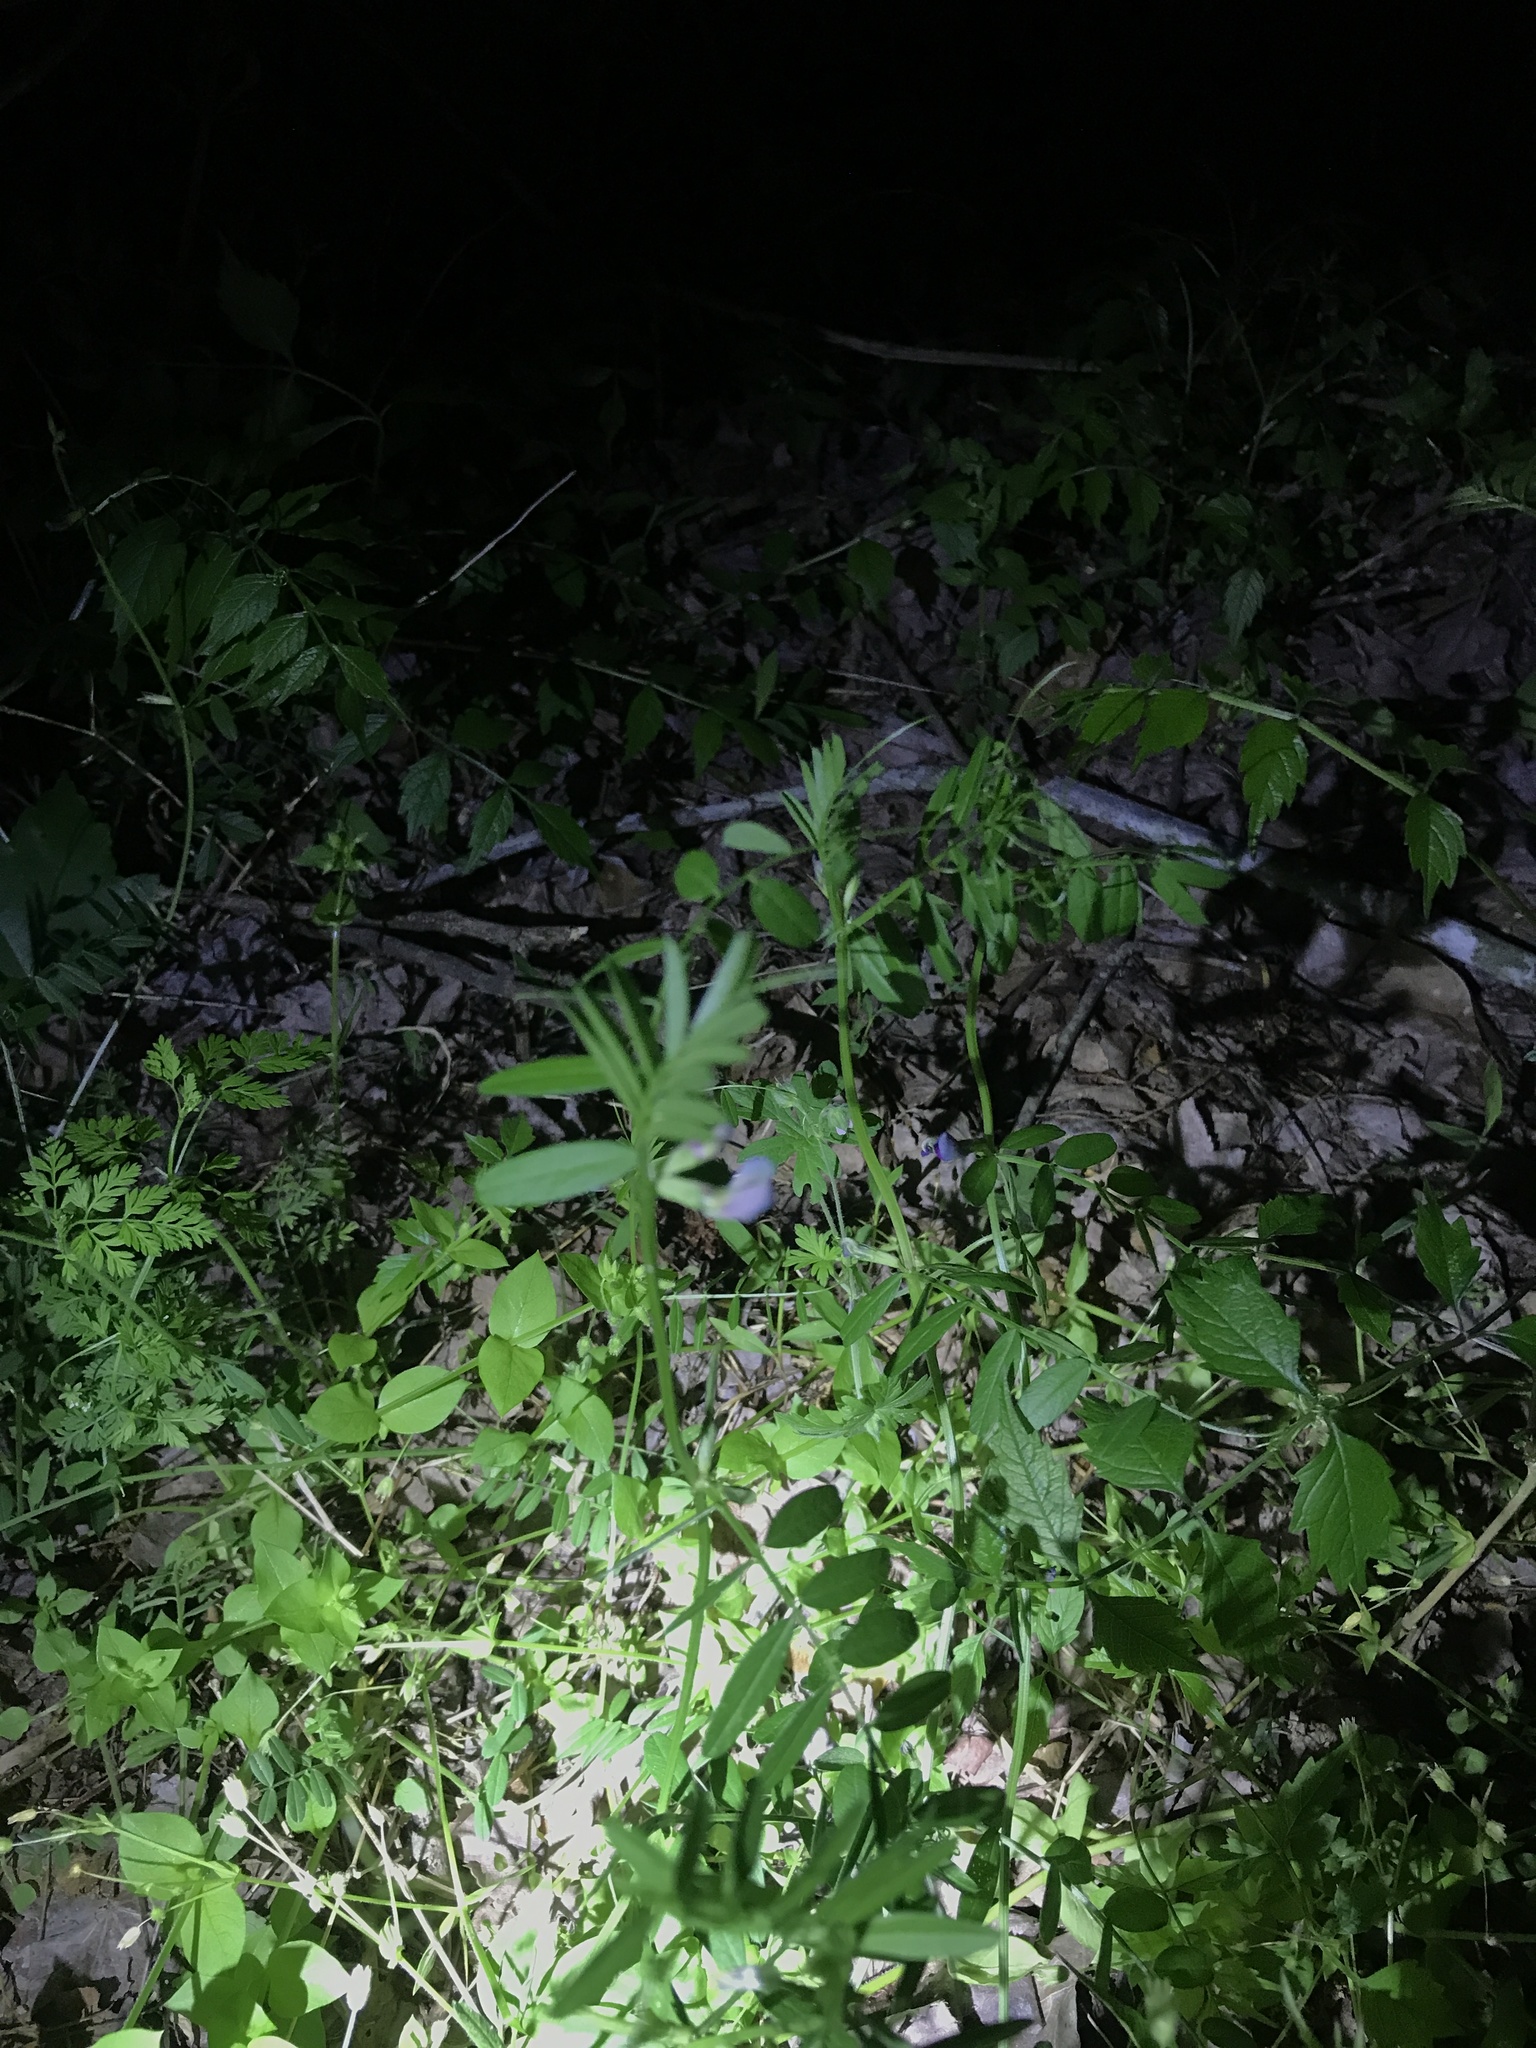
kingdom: Plantae
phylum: Tracheophyta
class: Magnoliopsida
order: Fabales
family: Fabaceae
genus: Vicia
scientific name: Vicia sativa
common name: Garden vetch
